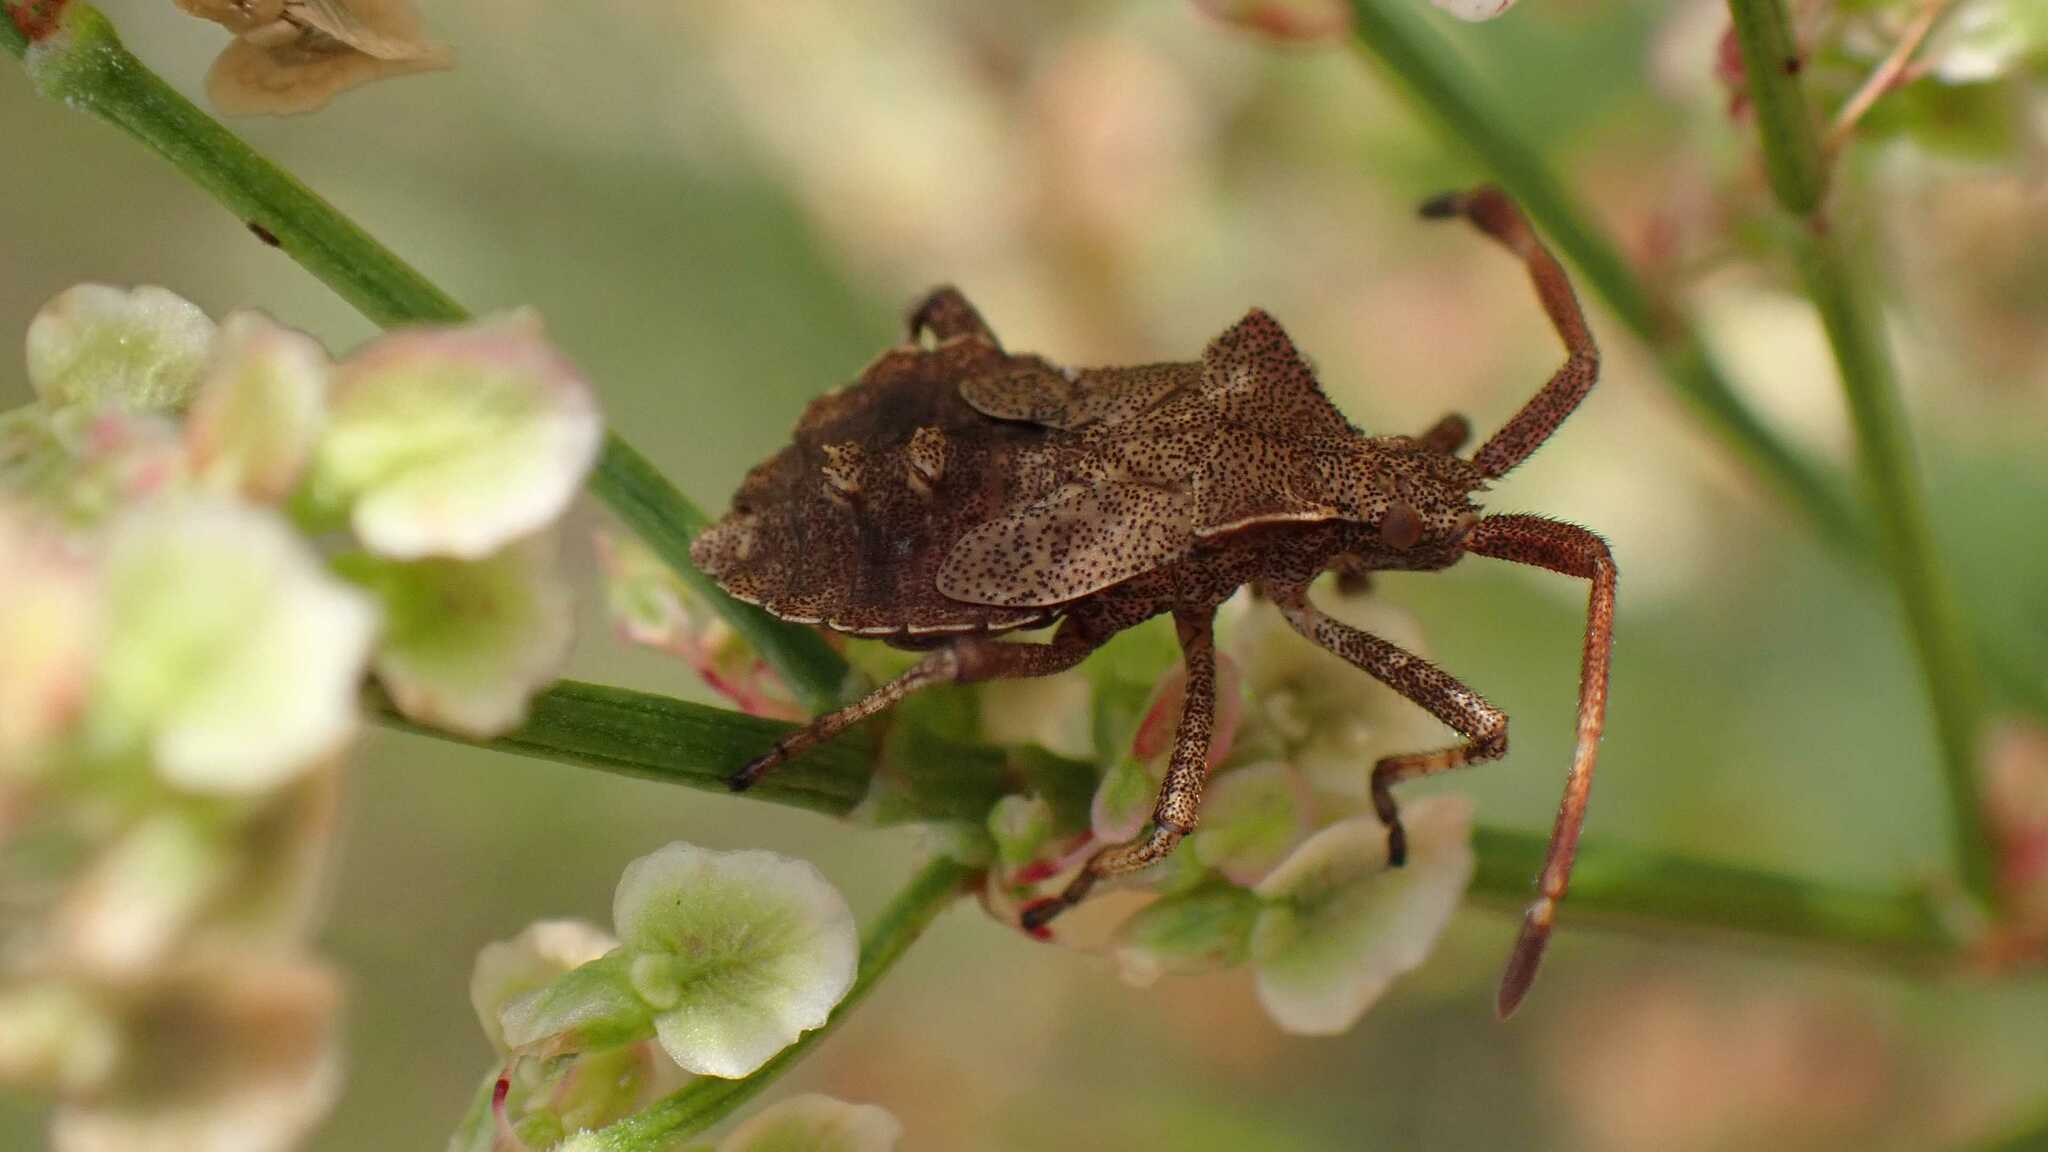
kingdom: Animalia
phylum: Arthropoda
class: Insecta
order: Hemiptera
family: Coreidae
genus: Coreus
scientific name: Coreus marginatus
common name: Dock bug
